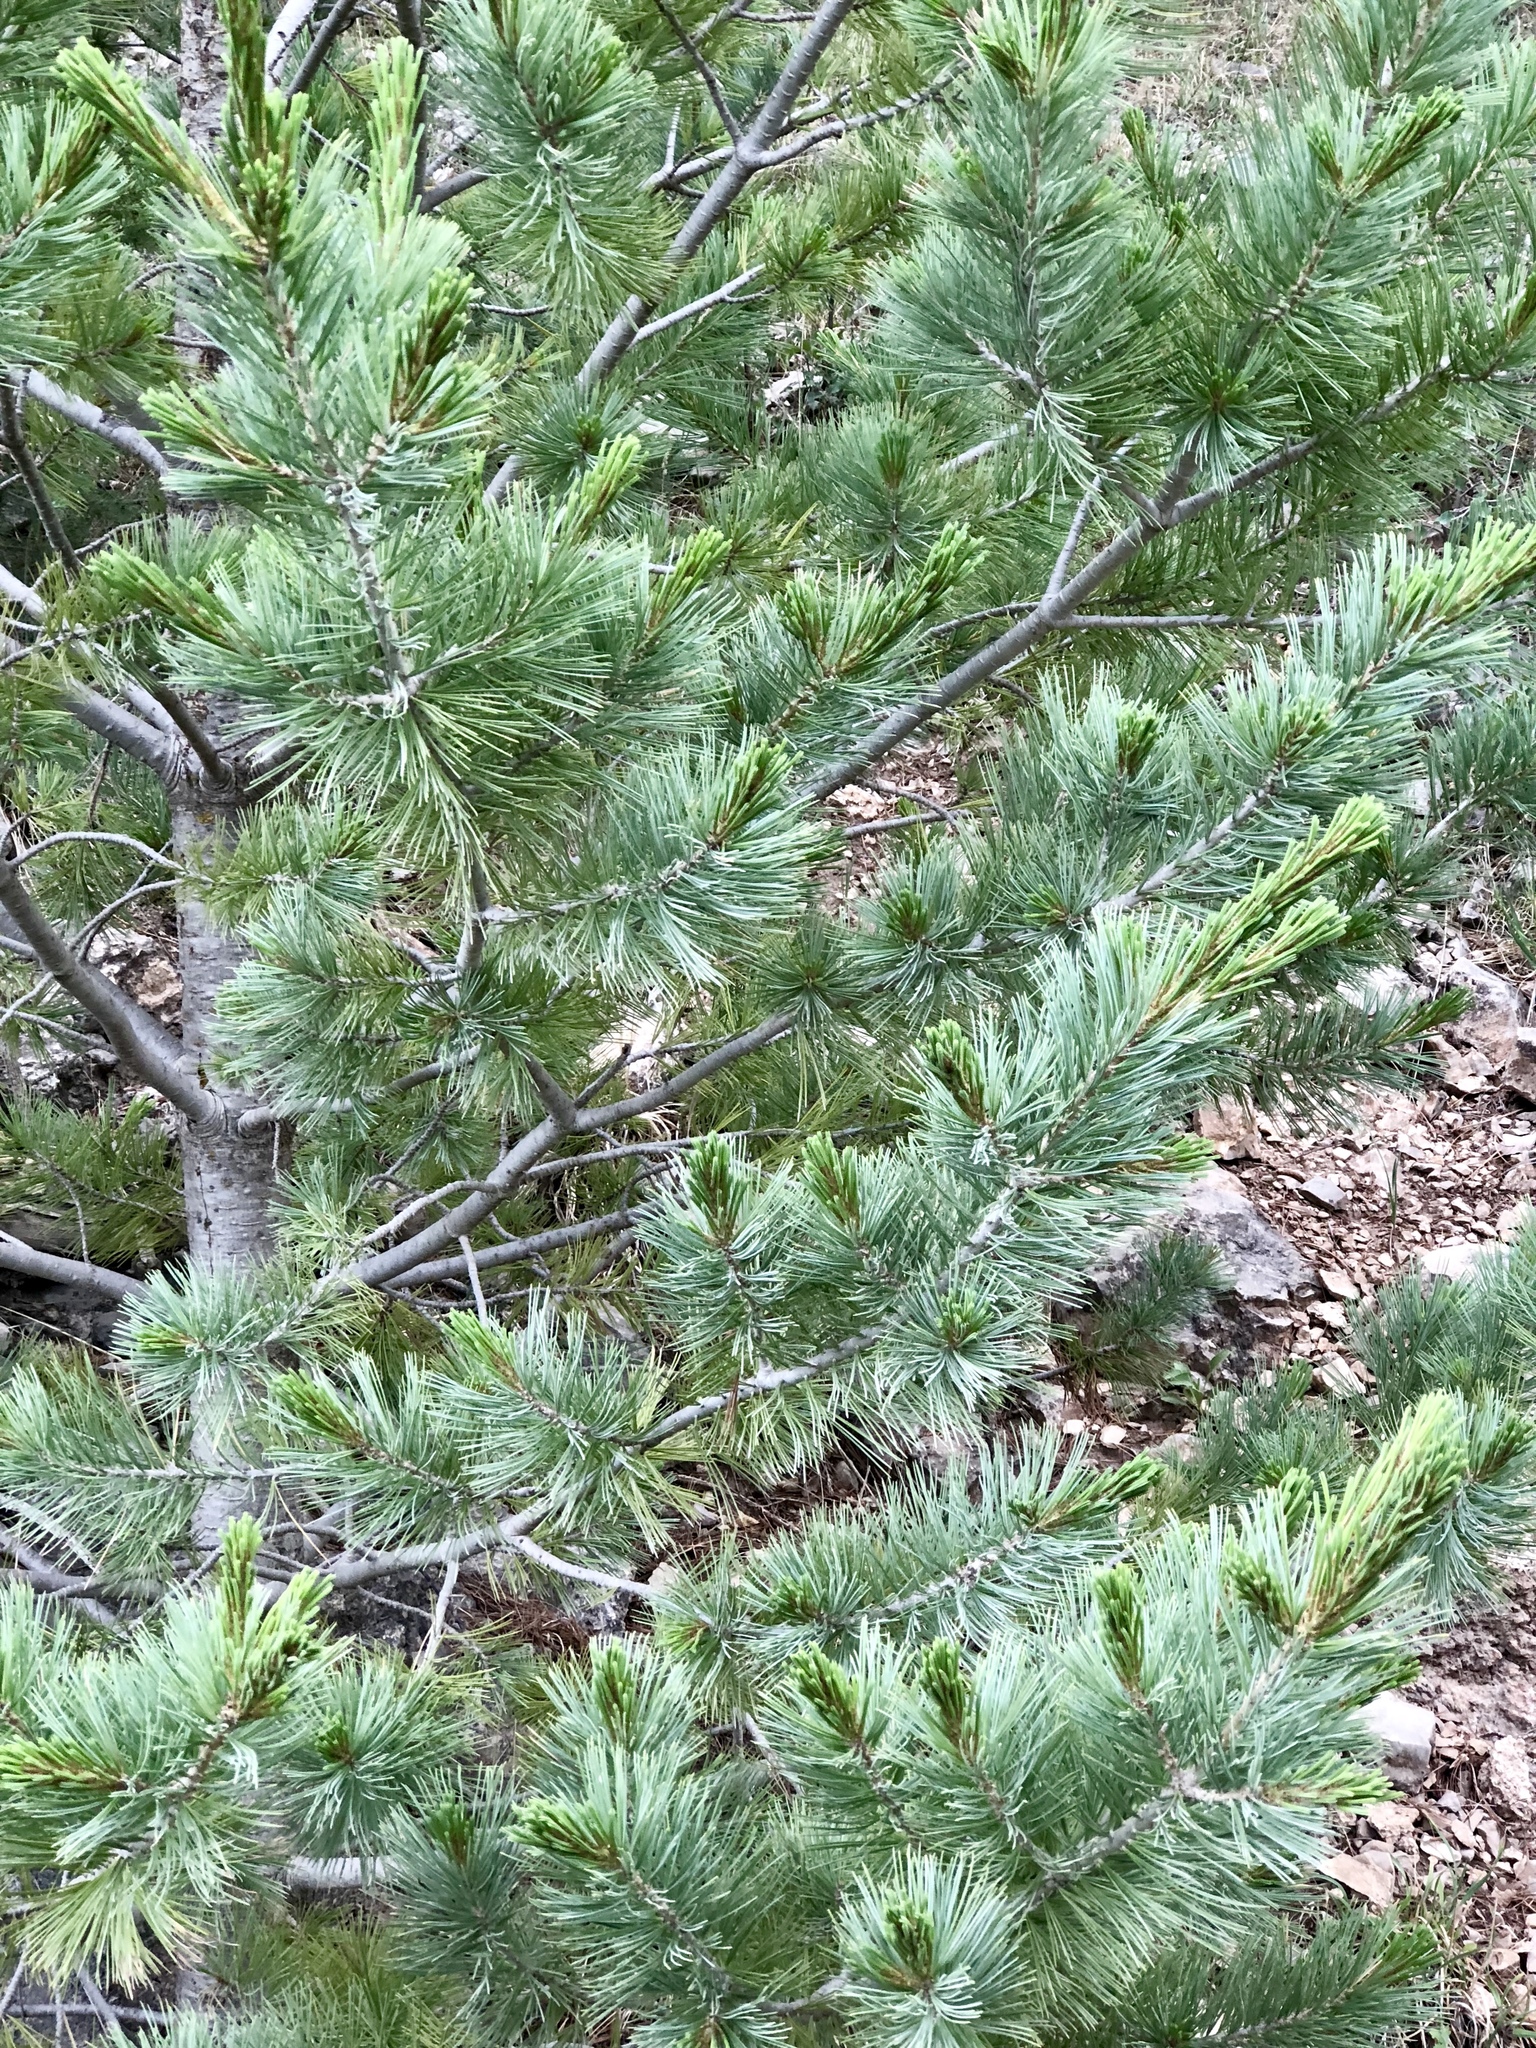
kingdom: Plantae
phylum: Tracheophyta
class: Pinopsida
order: Pinales
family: Pinaceae
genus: Pinus
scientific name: Pinus strobiformis
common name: Southwestern white pine
